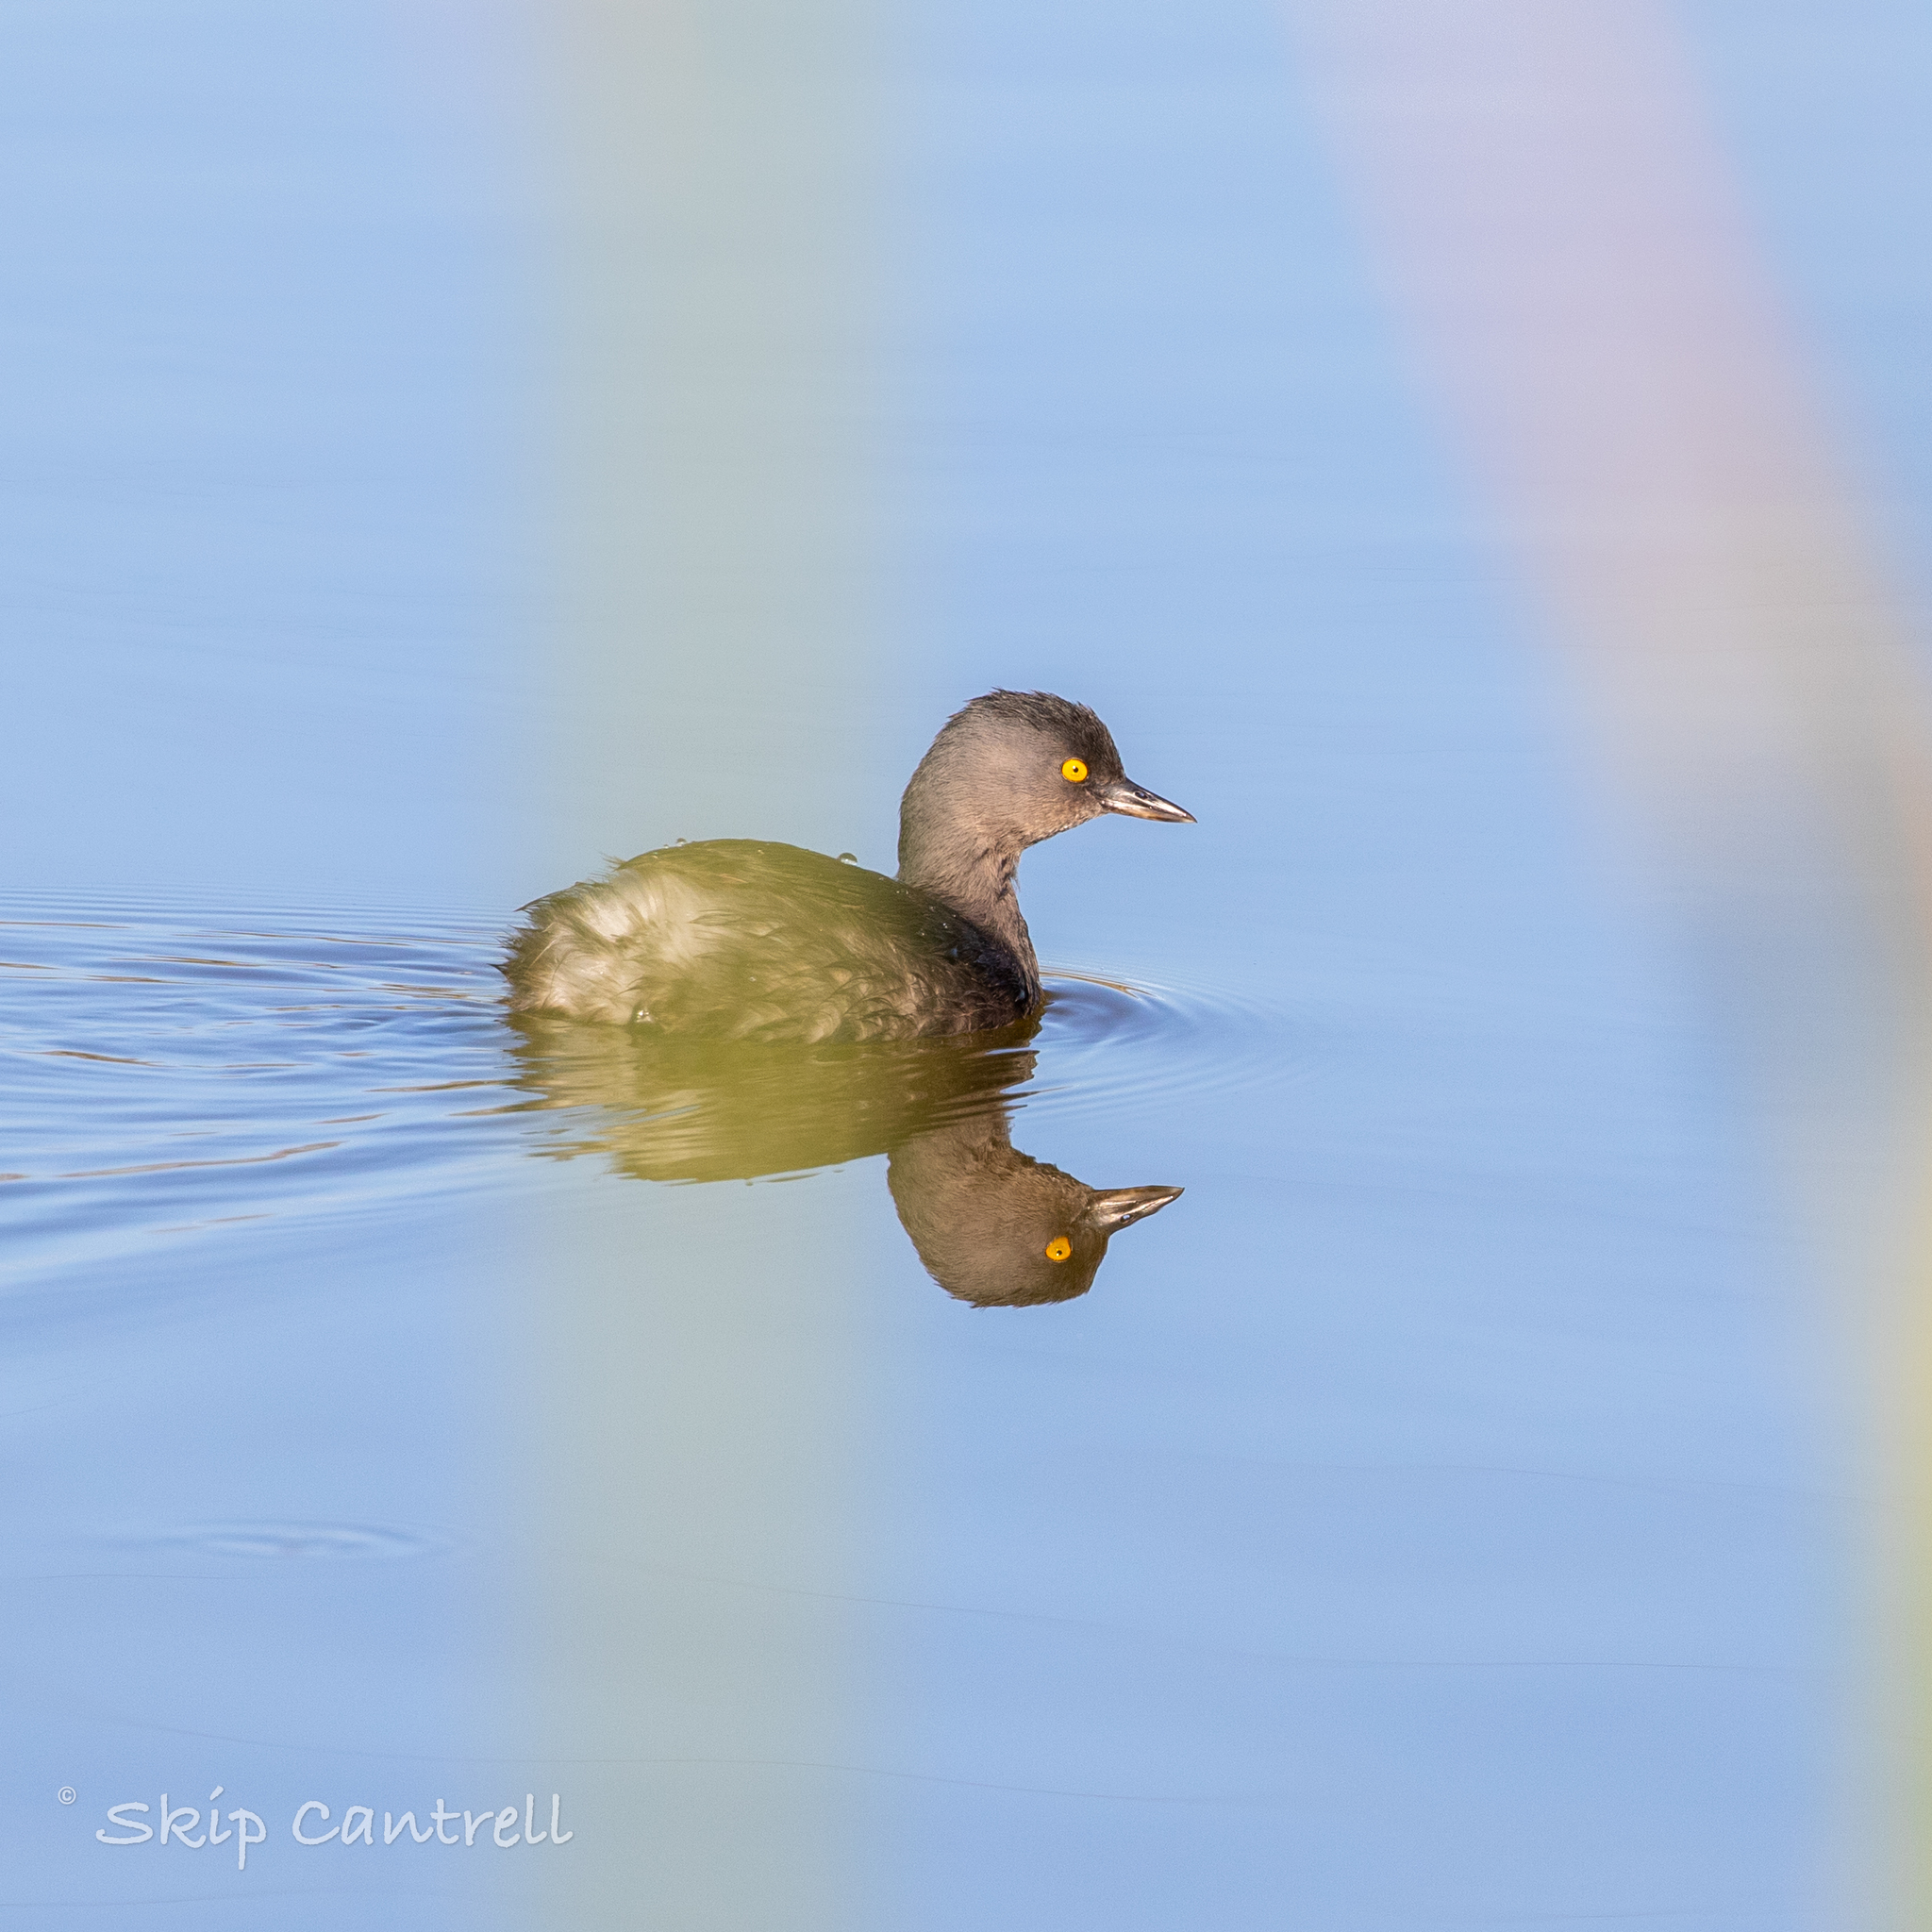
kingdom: Animalia
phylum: Chordata
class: Aves
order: Podicipediformes
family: Podicipedidae
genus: Tachybaptus
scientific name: Tachybaptus dominicus
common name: Least grebe
